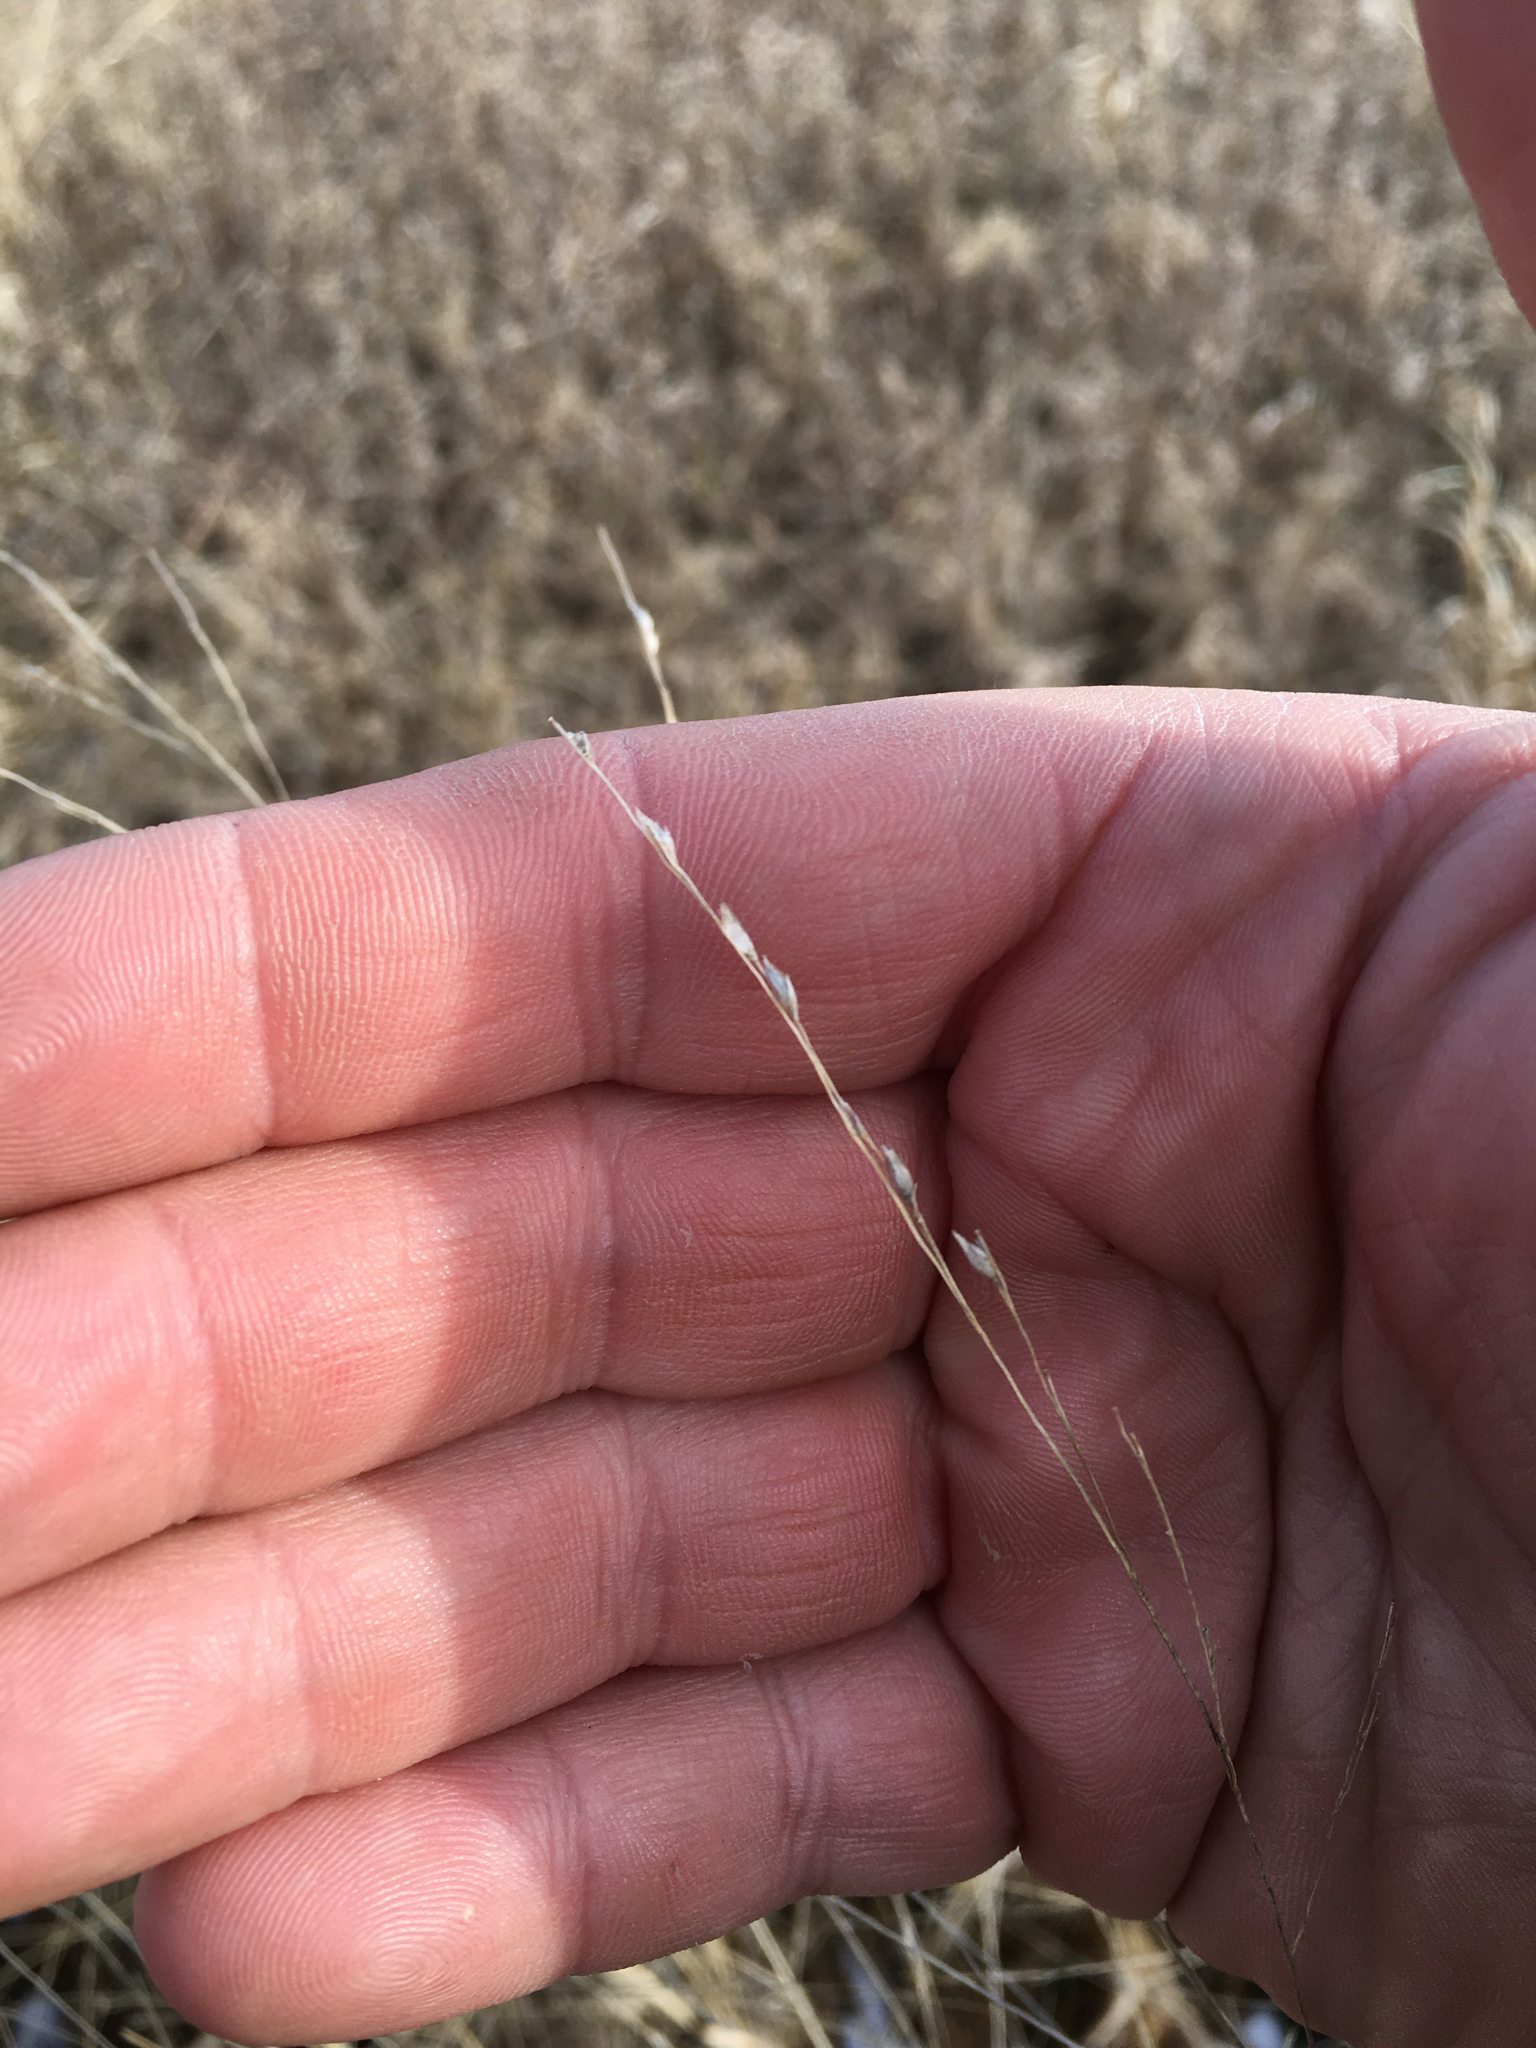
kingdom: Plantae
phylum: Tracheophyta
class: Liliopsida
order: Poales
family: Poaceae
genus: Panicum
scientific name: Panicum virgatum
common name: Switchgrass
